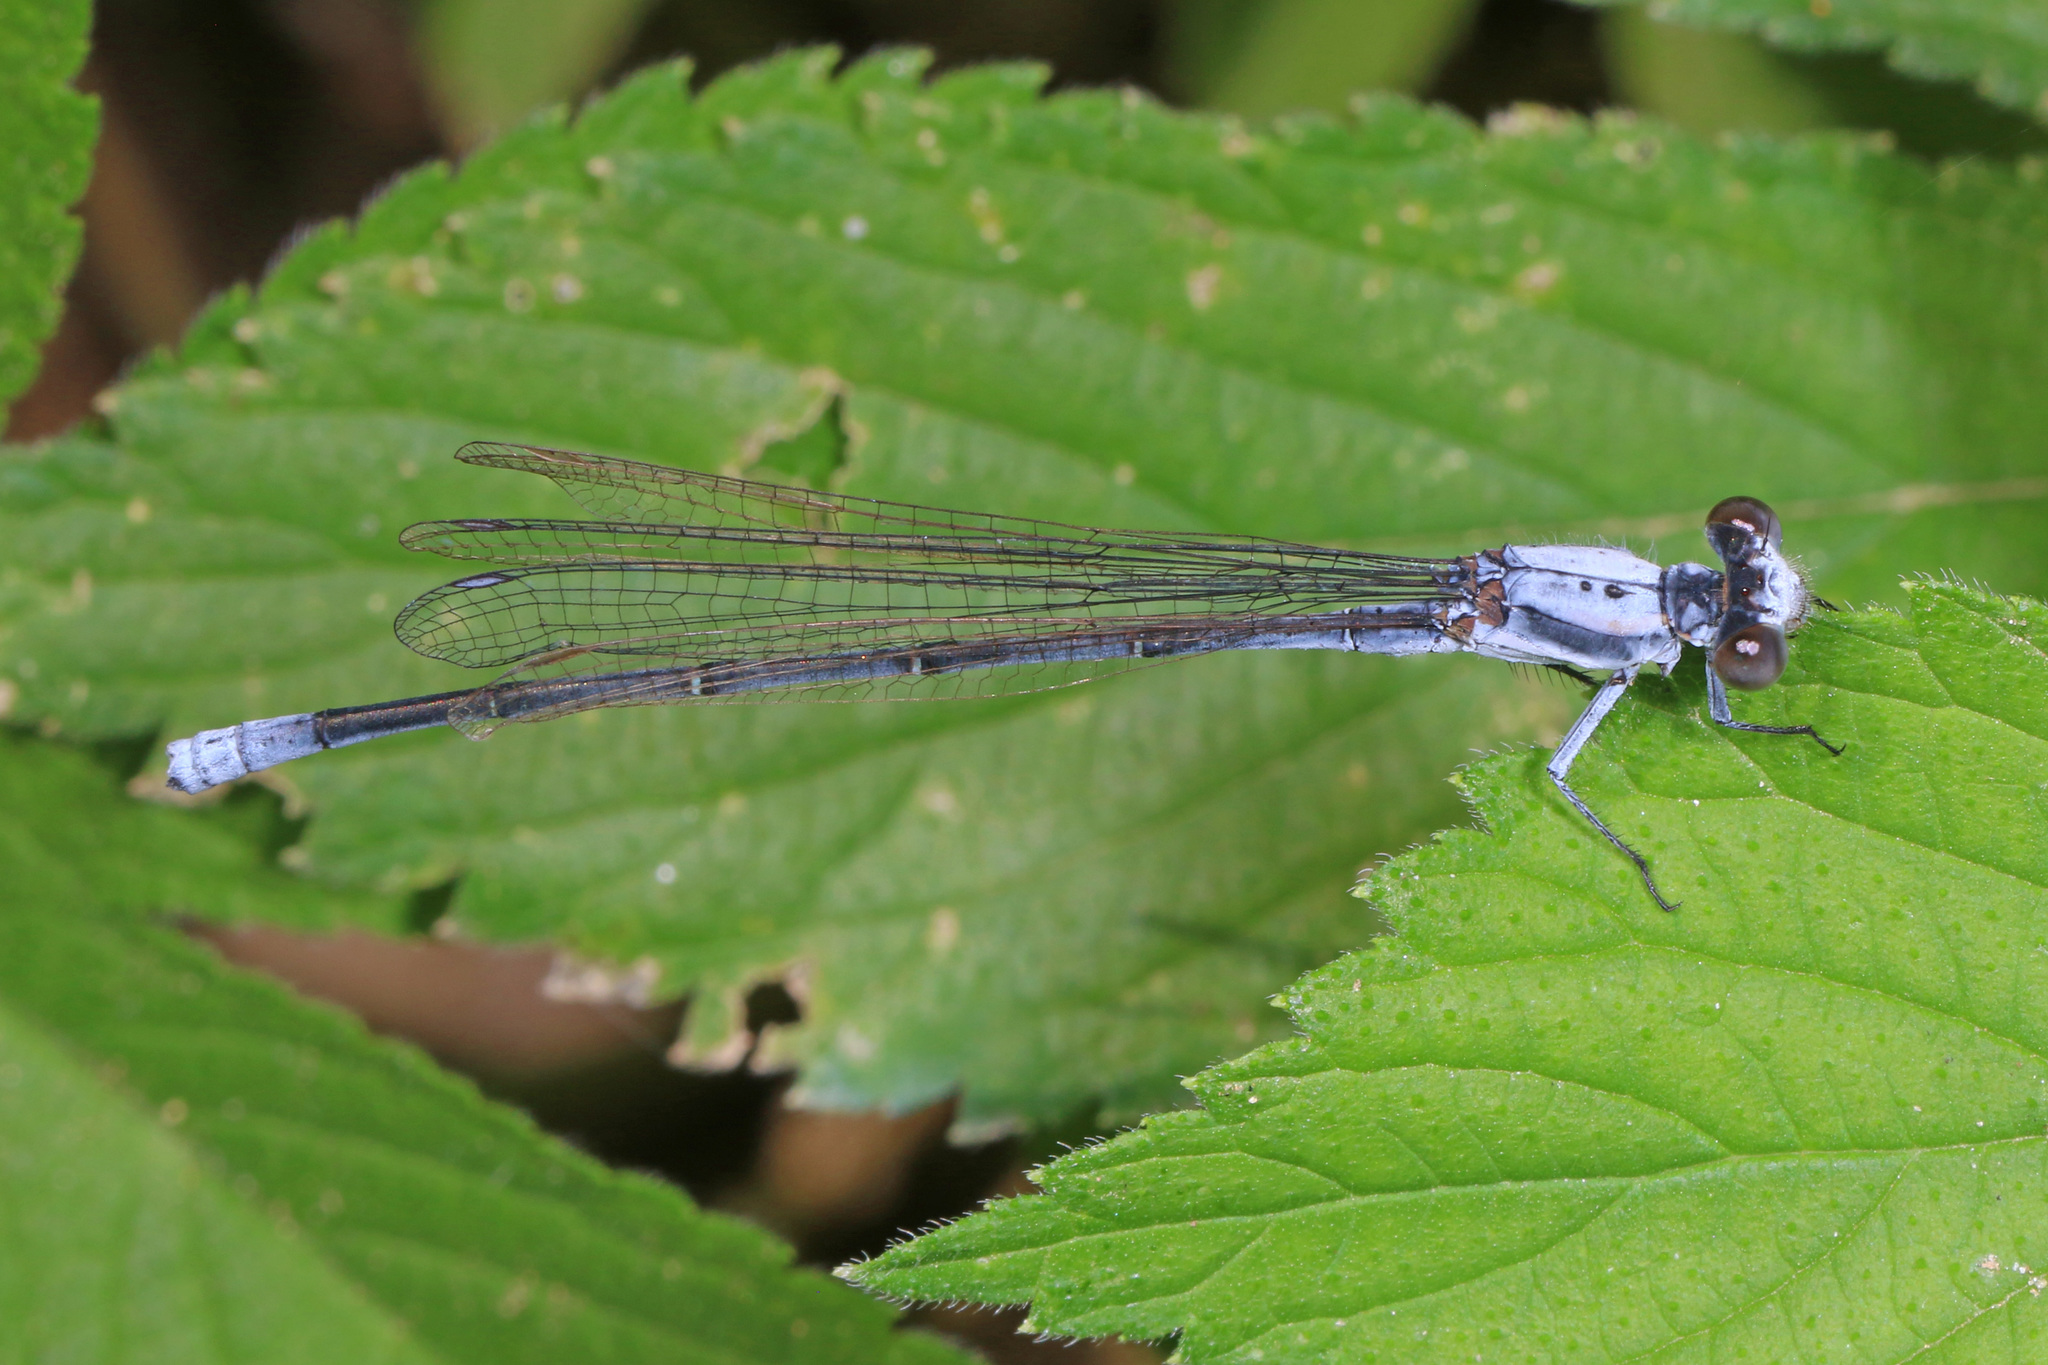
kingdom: Animalia
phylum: Arthropoda
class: Insecta
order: Odonata
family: Coenagrionidae
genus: Argia
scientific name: Argia moesta
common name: Powdered dancer
